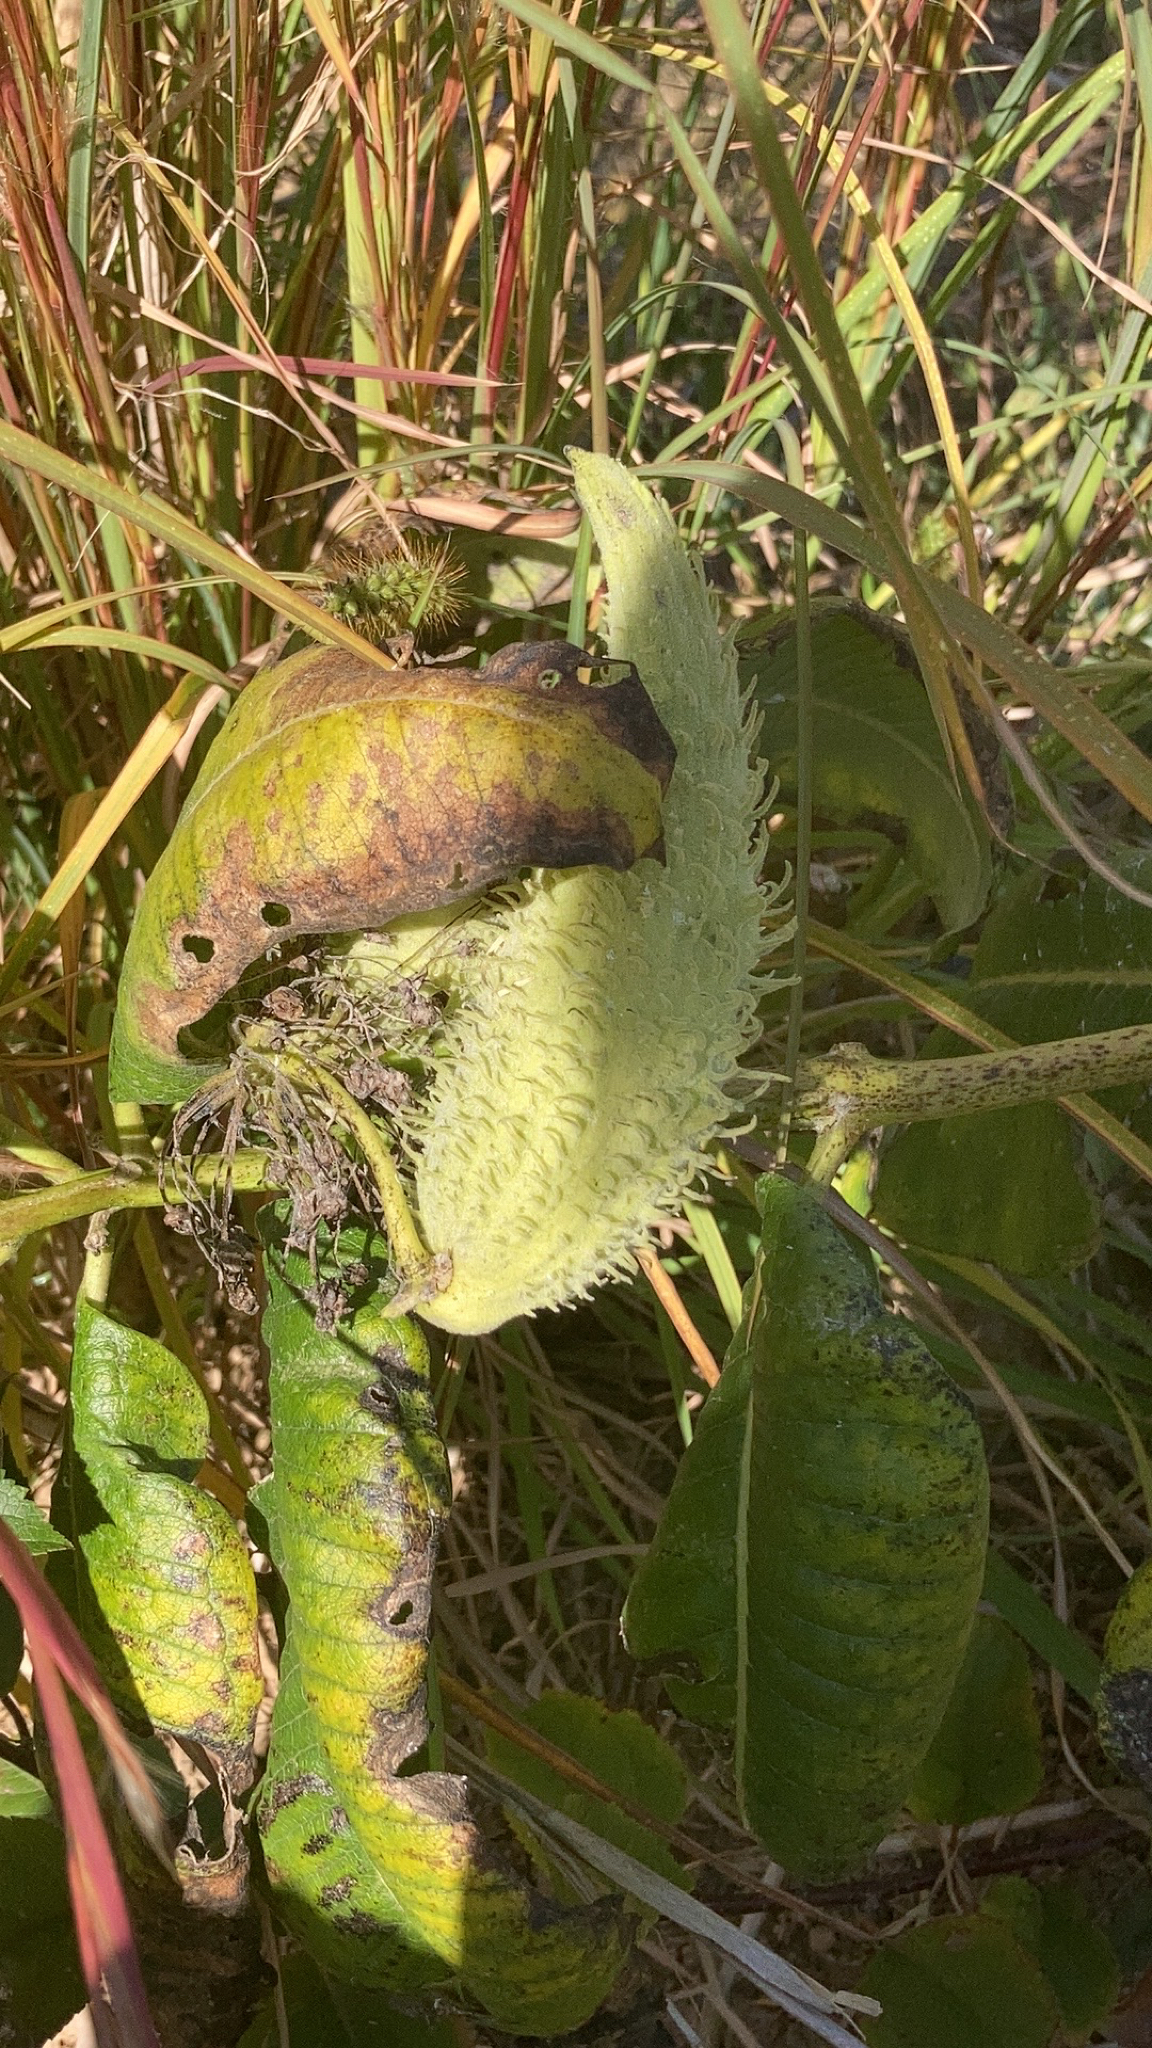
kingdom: Plantae
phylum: Tracheophyta
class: Magnoliopsida
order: Gentianales
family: Apocynaceae
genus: Asclepias
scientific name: Asclepias syriaca
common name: Common milkweed
